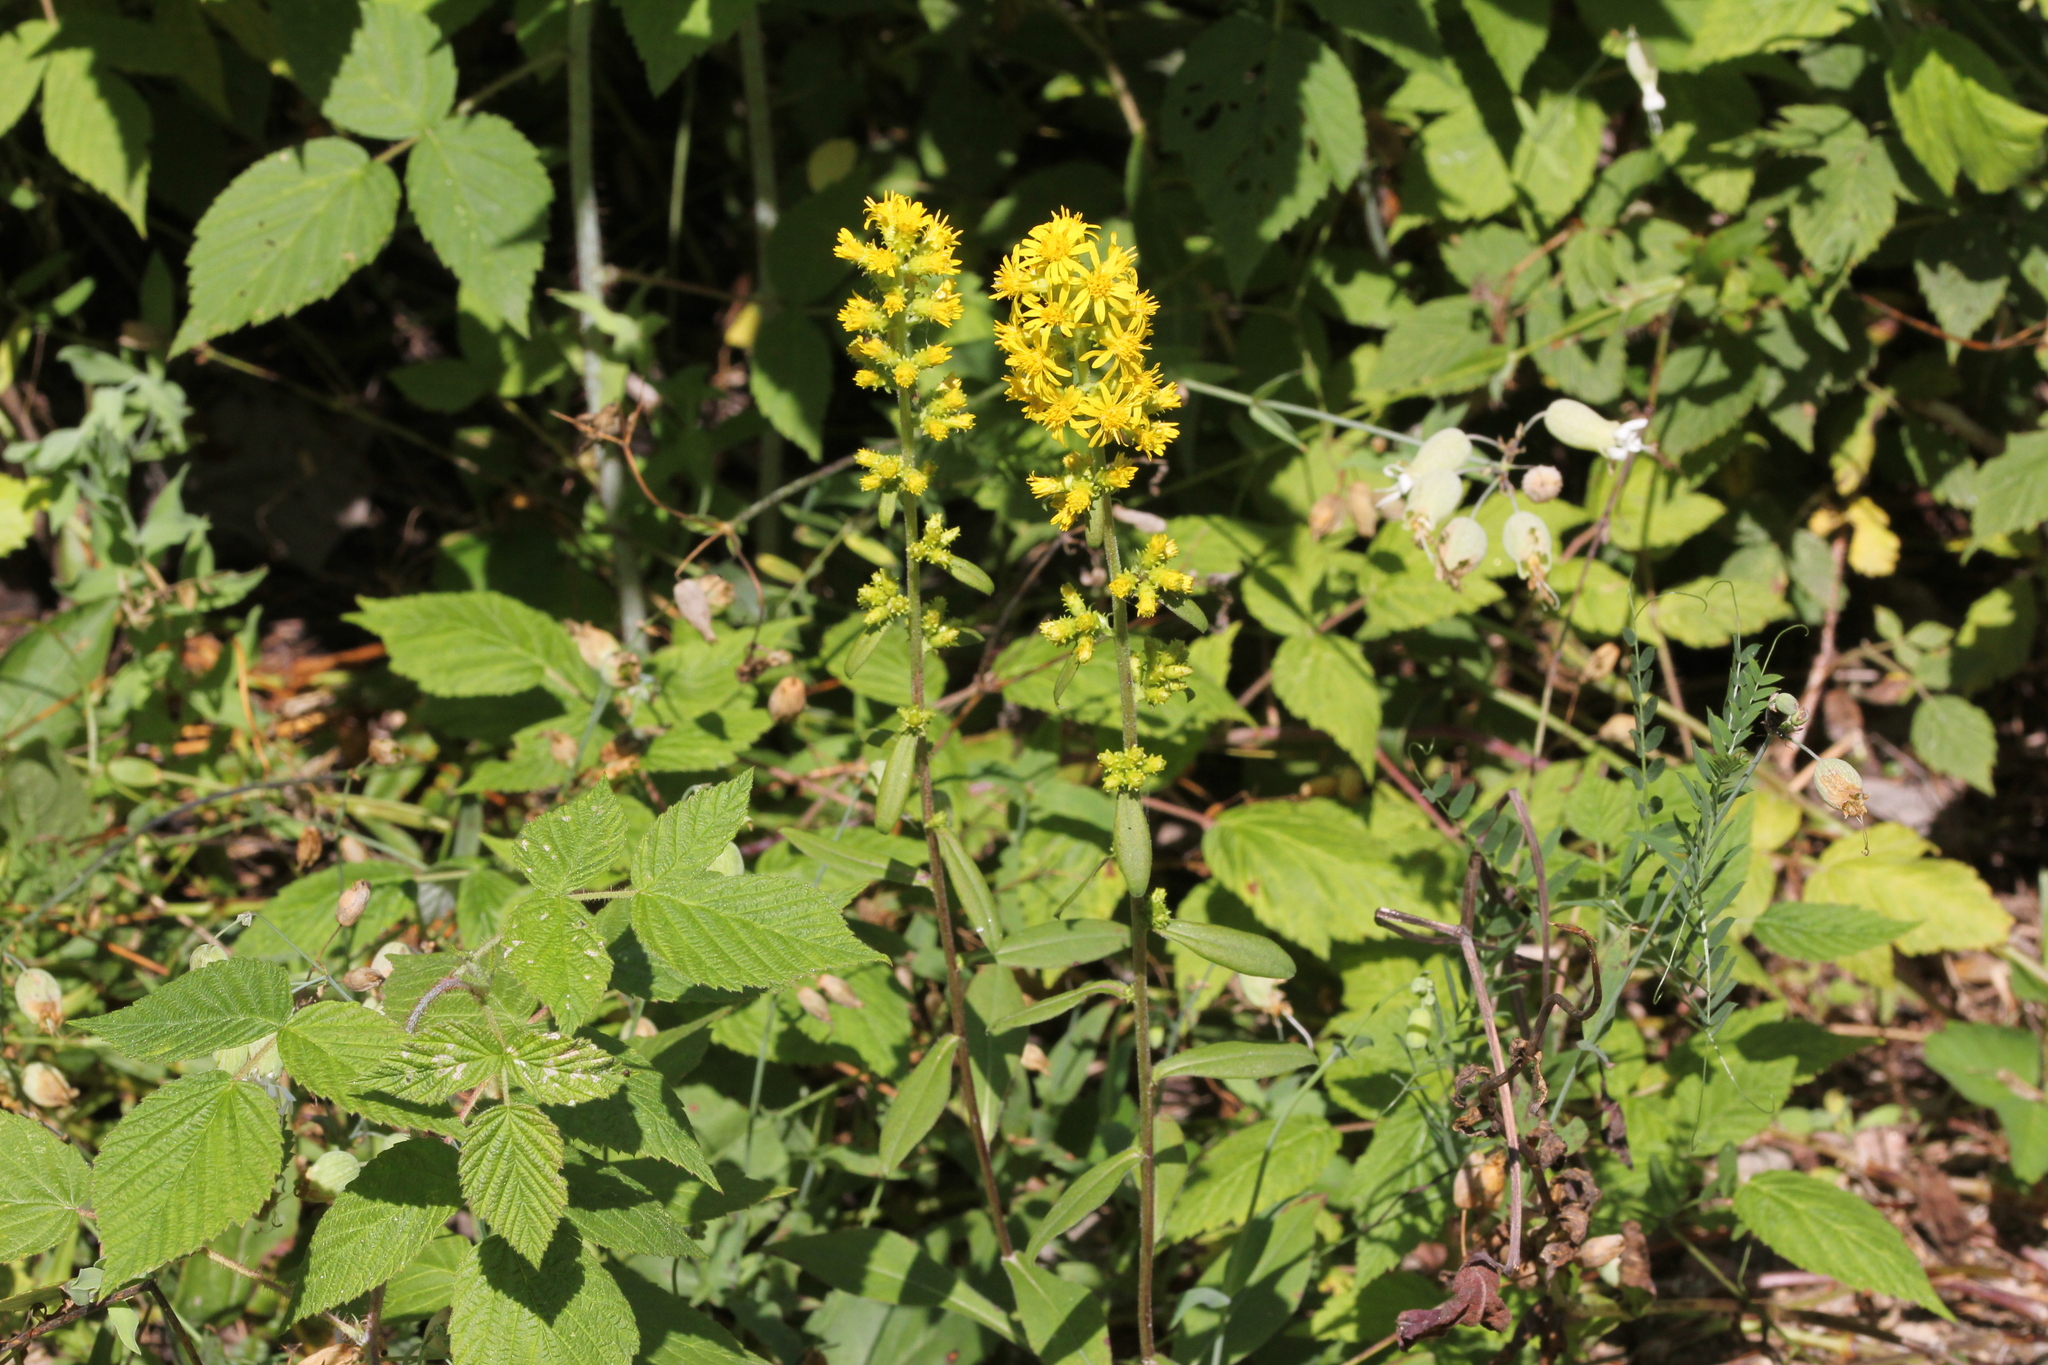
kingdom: Plantae
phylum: Tracheophyta
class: Magnoliopsida
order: Asterales
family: Asteraceae
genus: Solidago
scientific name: Solidago squarrosa
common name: Stout goldenrod
